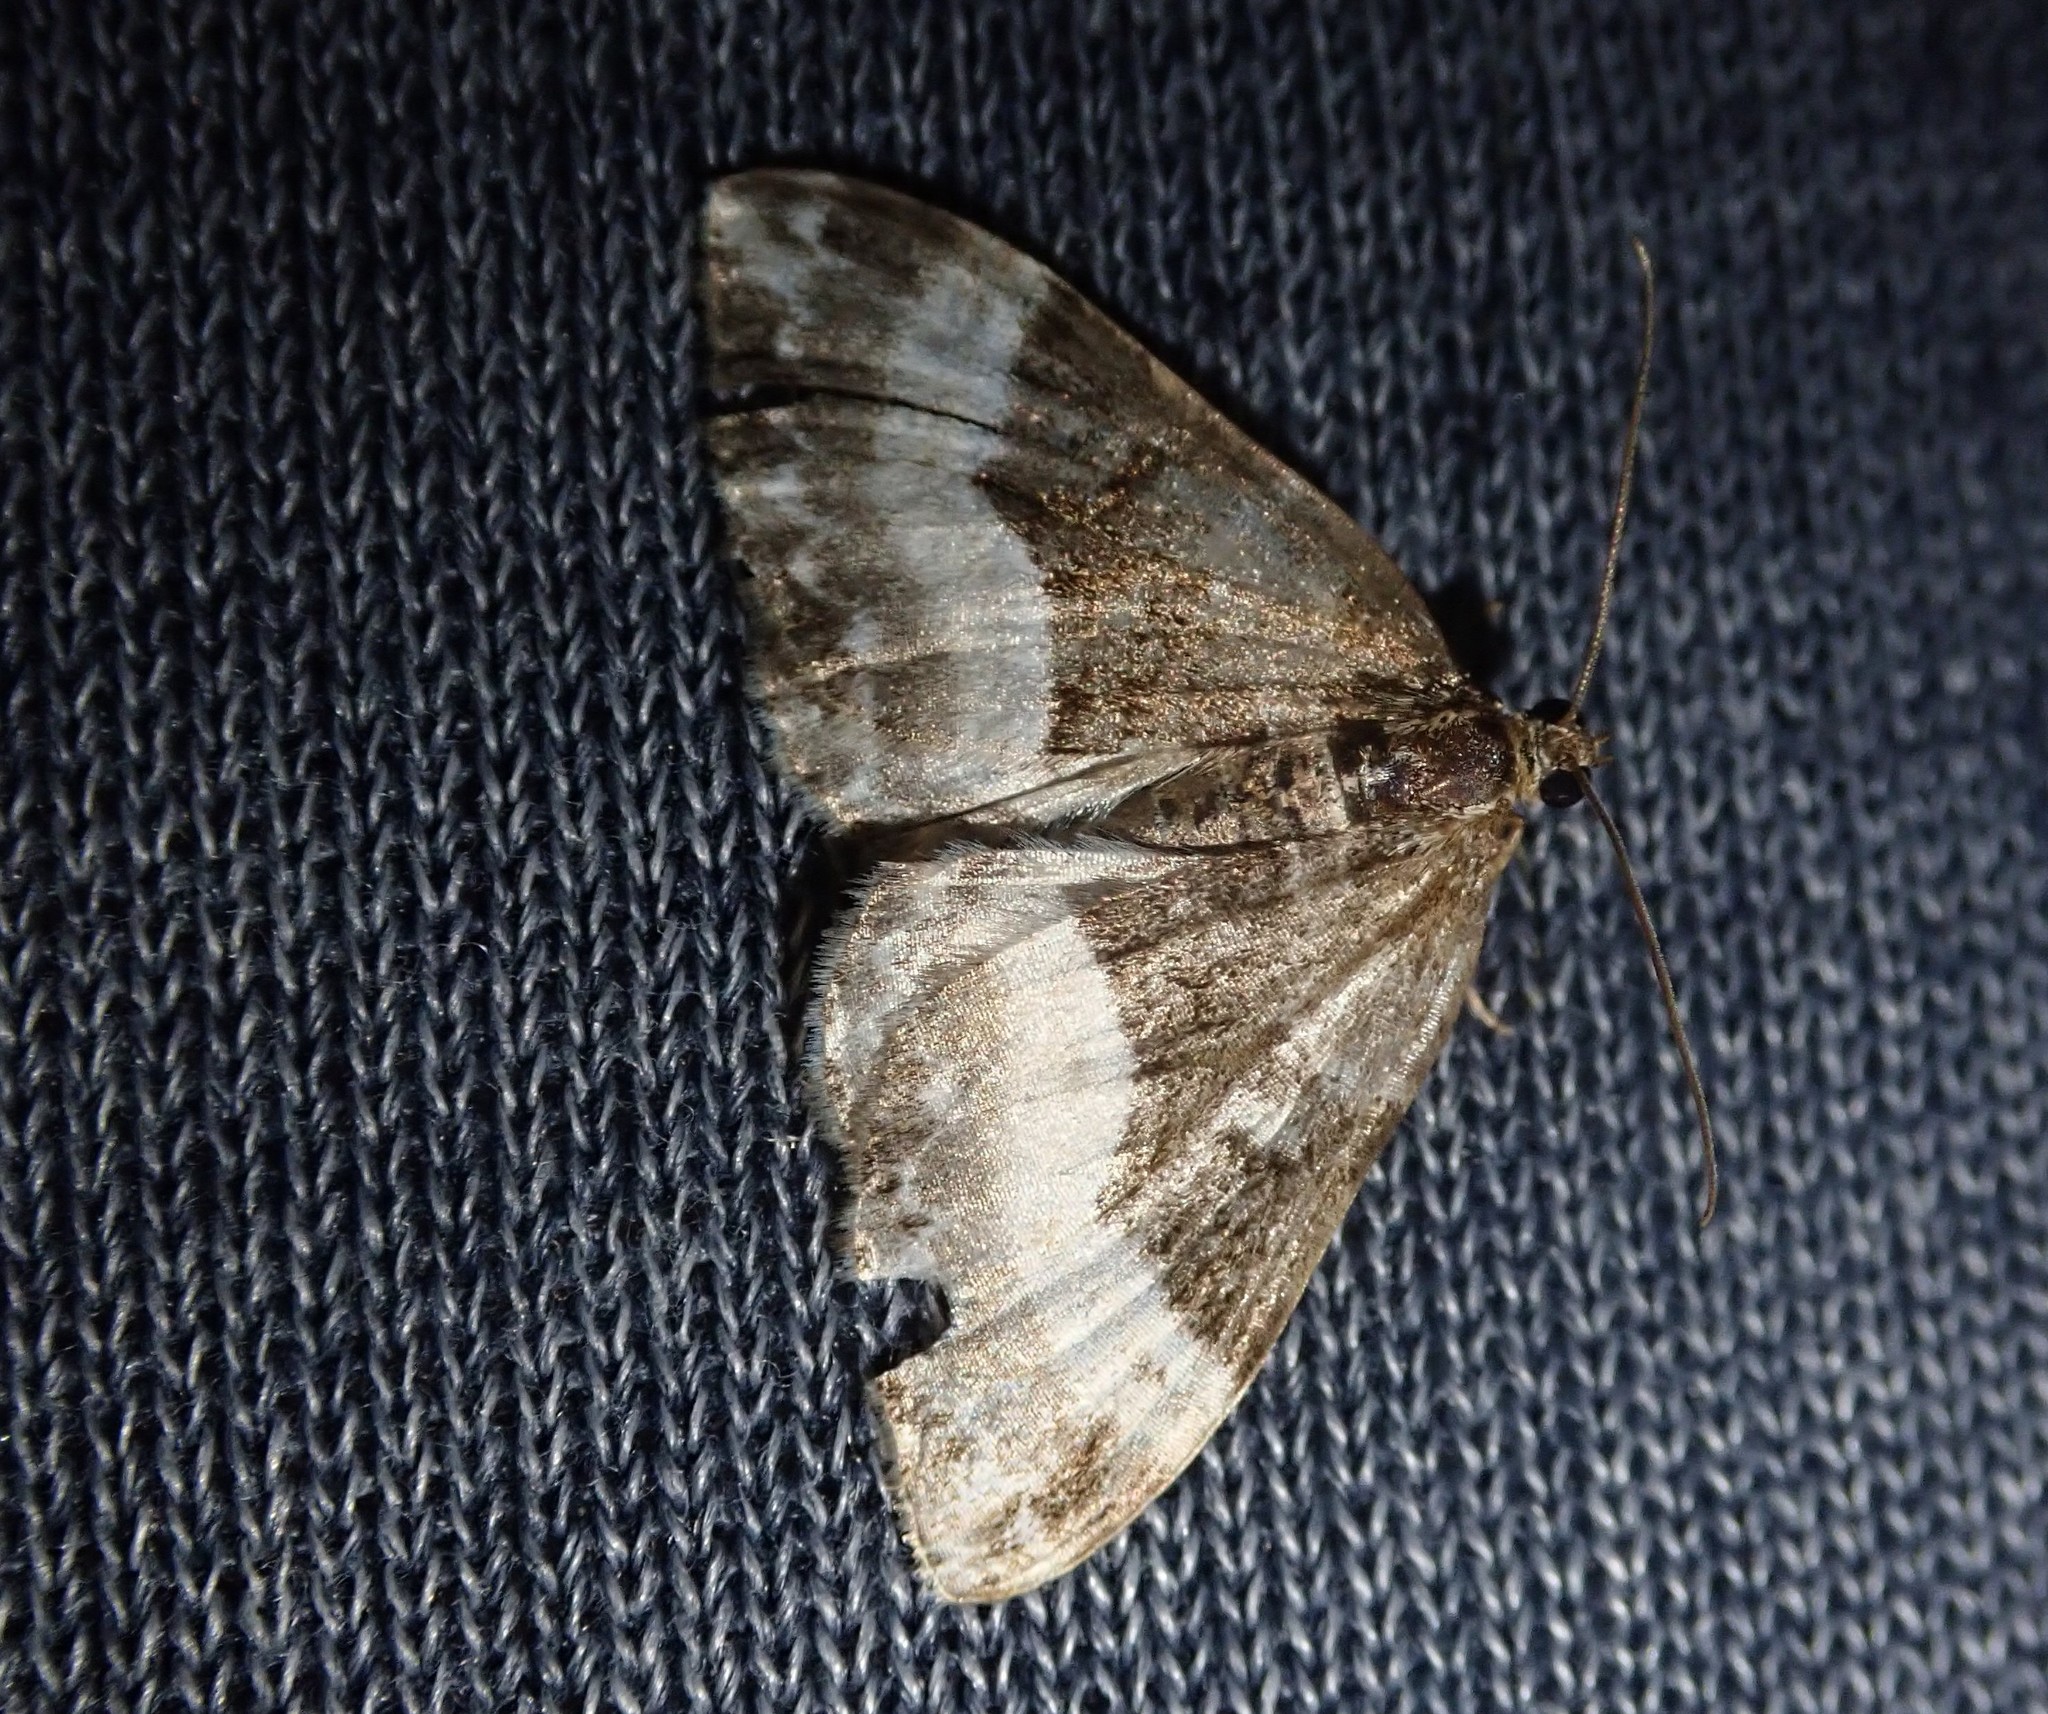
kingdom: Animalia
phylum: Arthropoda
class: Insecta
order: Lepidoptera
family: Geometridae
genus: Euphyia
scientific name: Euphyia unangulata
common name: Sharp-angled carpet
